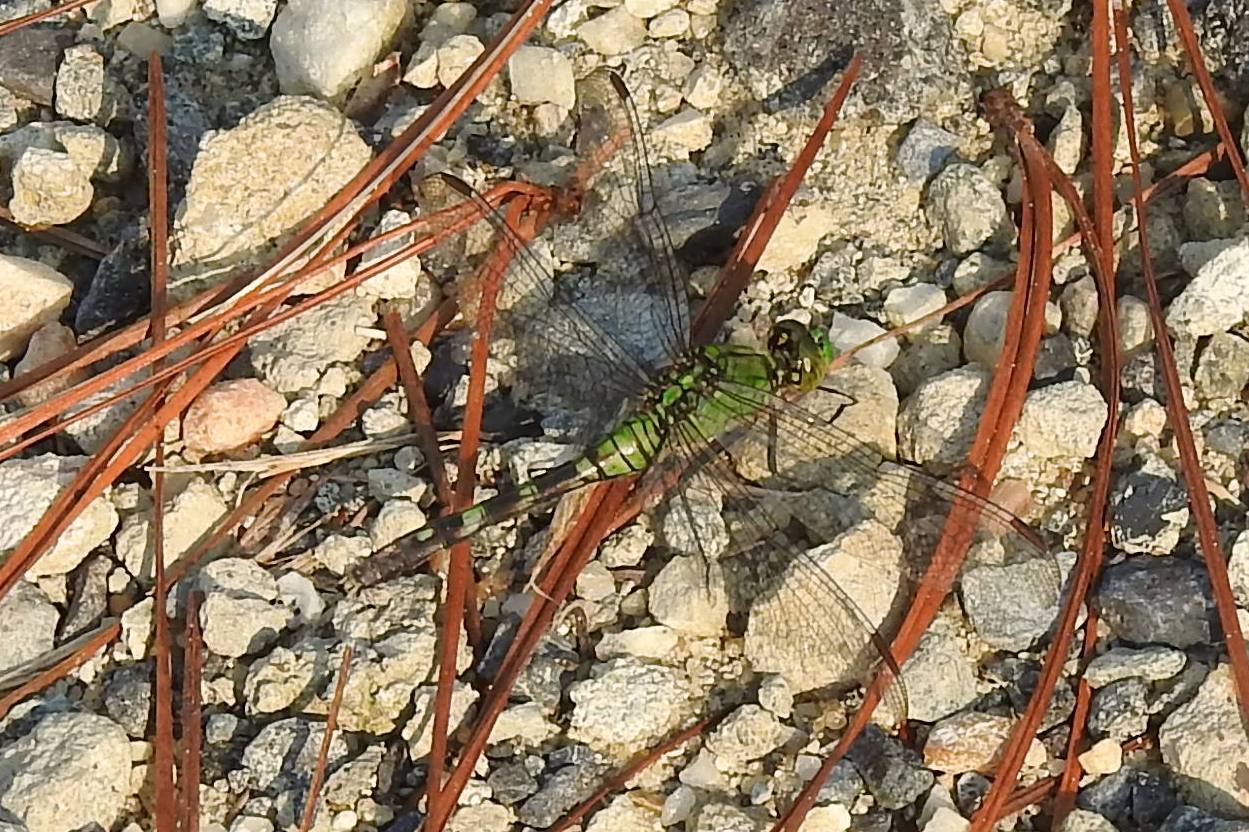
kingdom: Animalia
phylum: Arthropoda
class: Insecta
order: Odonata
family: Libellulidae
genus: Erythemis
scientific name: Erythemis simplicicollis
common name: Eastern pondhawk
